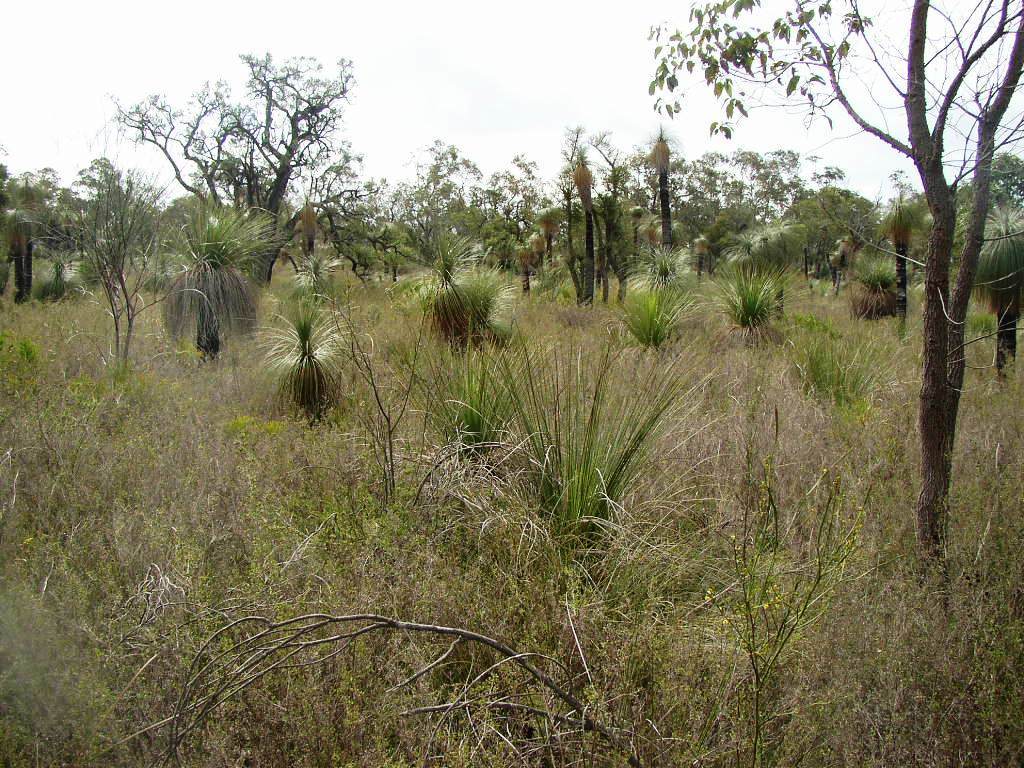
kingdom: Plantae
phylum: Tracheophyta
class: Liliopsida
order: Arecales
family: Dasypogonaceae
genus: Kingia
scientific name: Kingia australis
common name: Black gin
